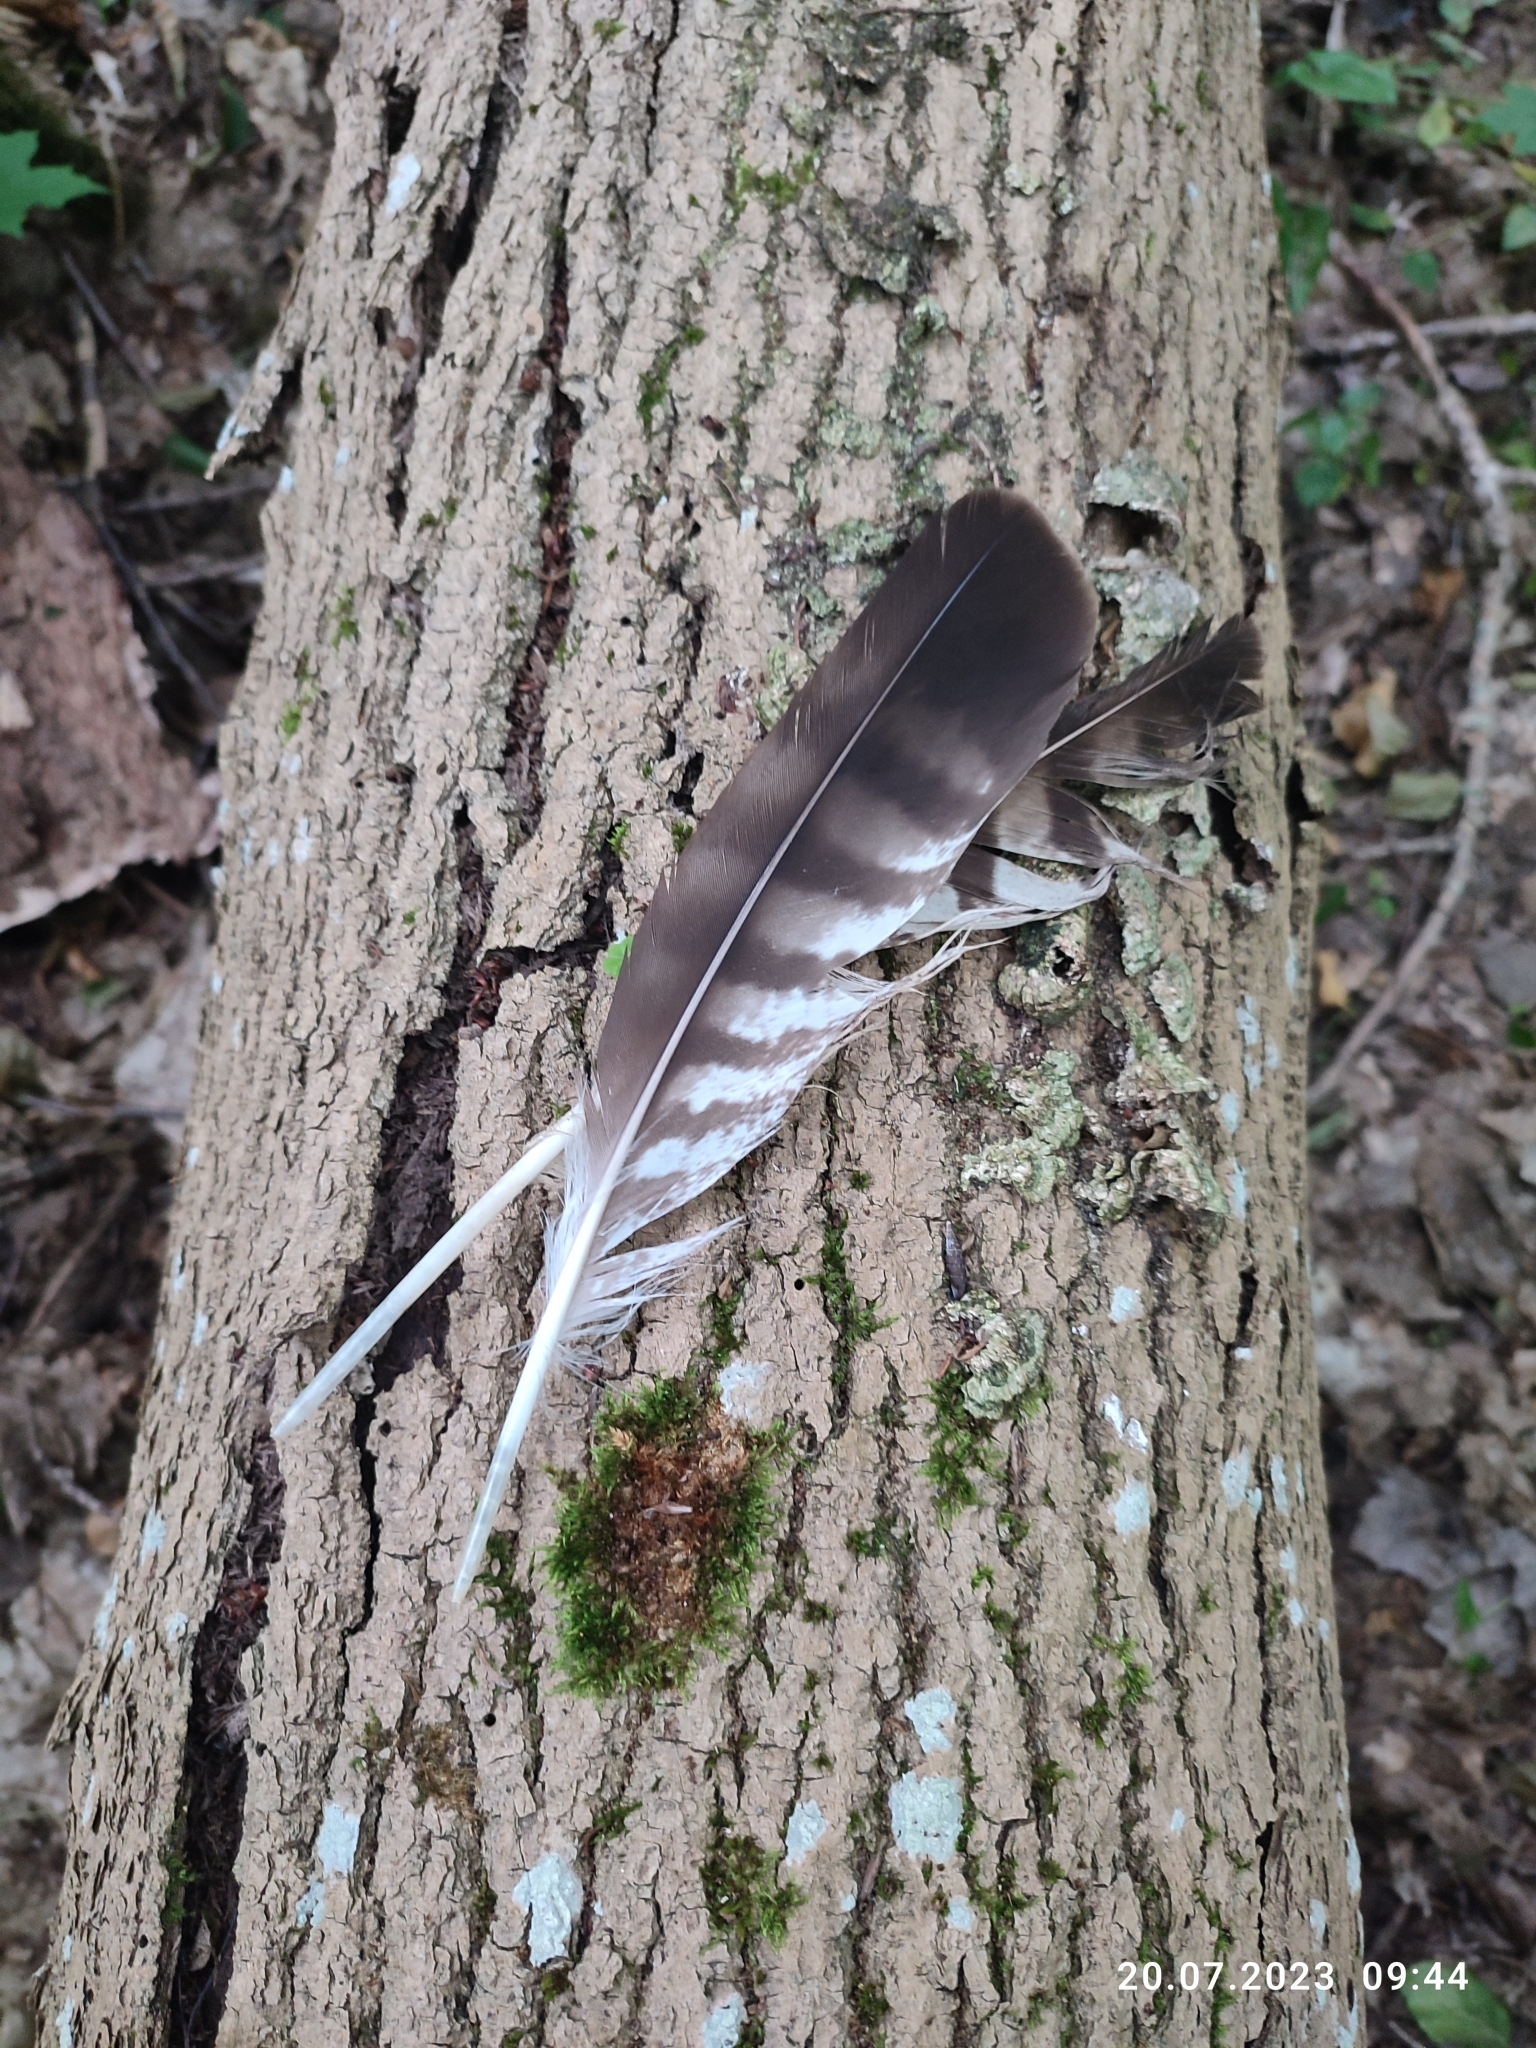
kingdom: Animalia
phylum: Chordata
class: Aves
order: Accipitriformes
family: Accipitridae
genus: Buteo
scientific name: Buteo buteo
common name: Common buzzard
